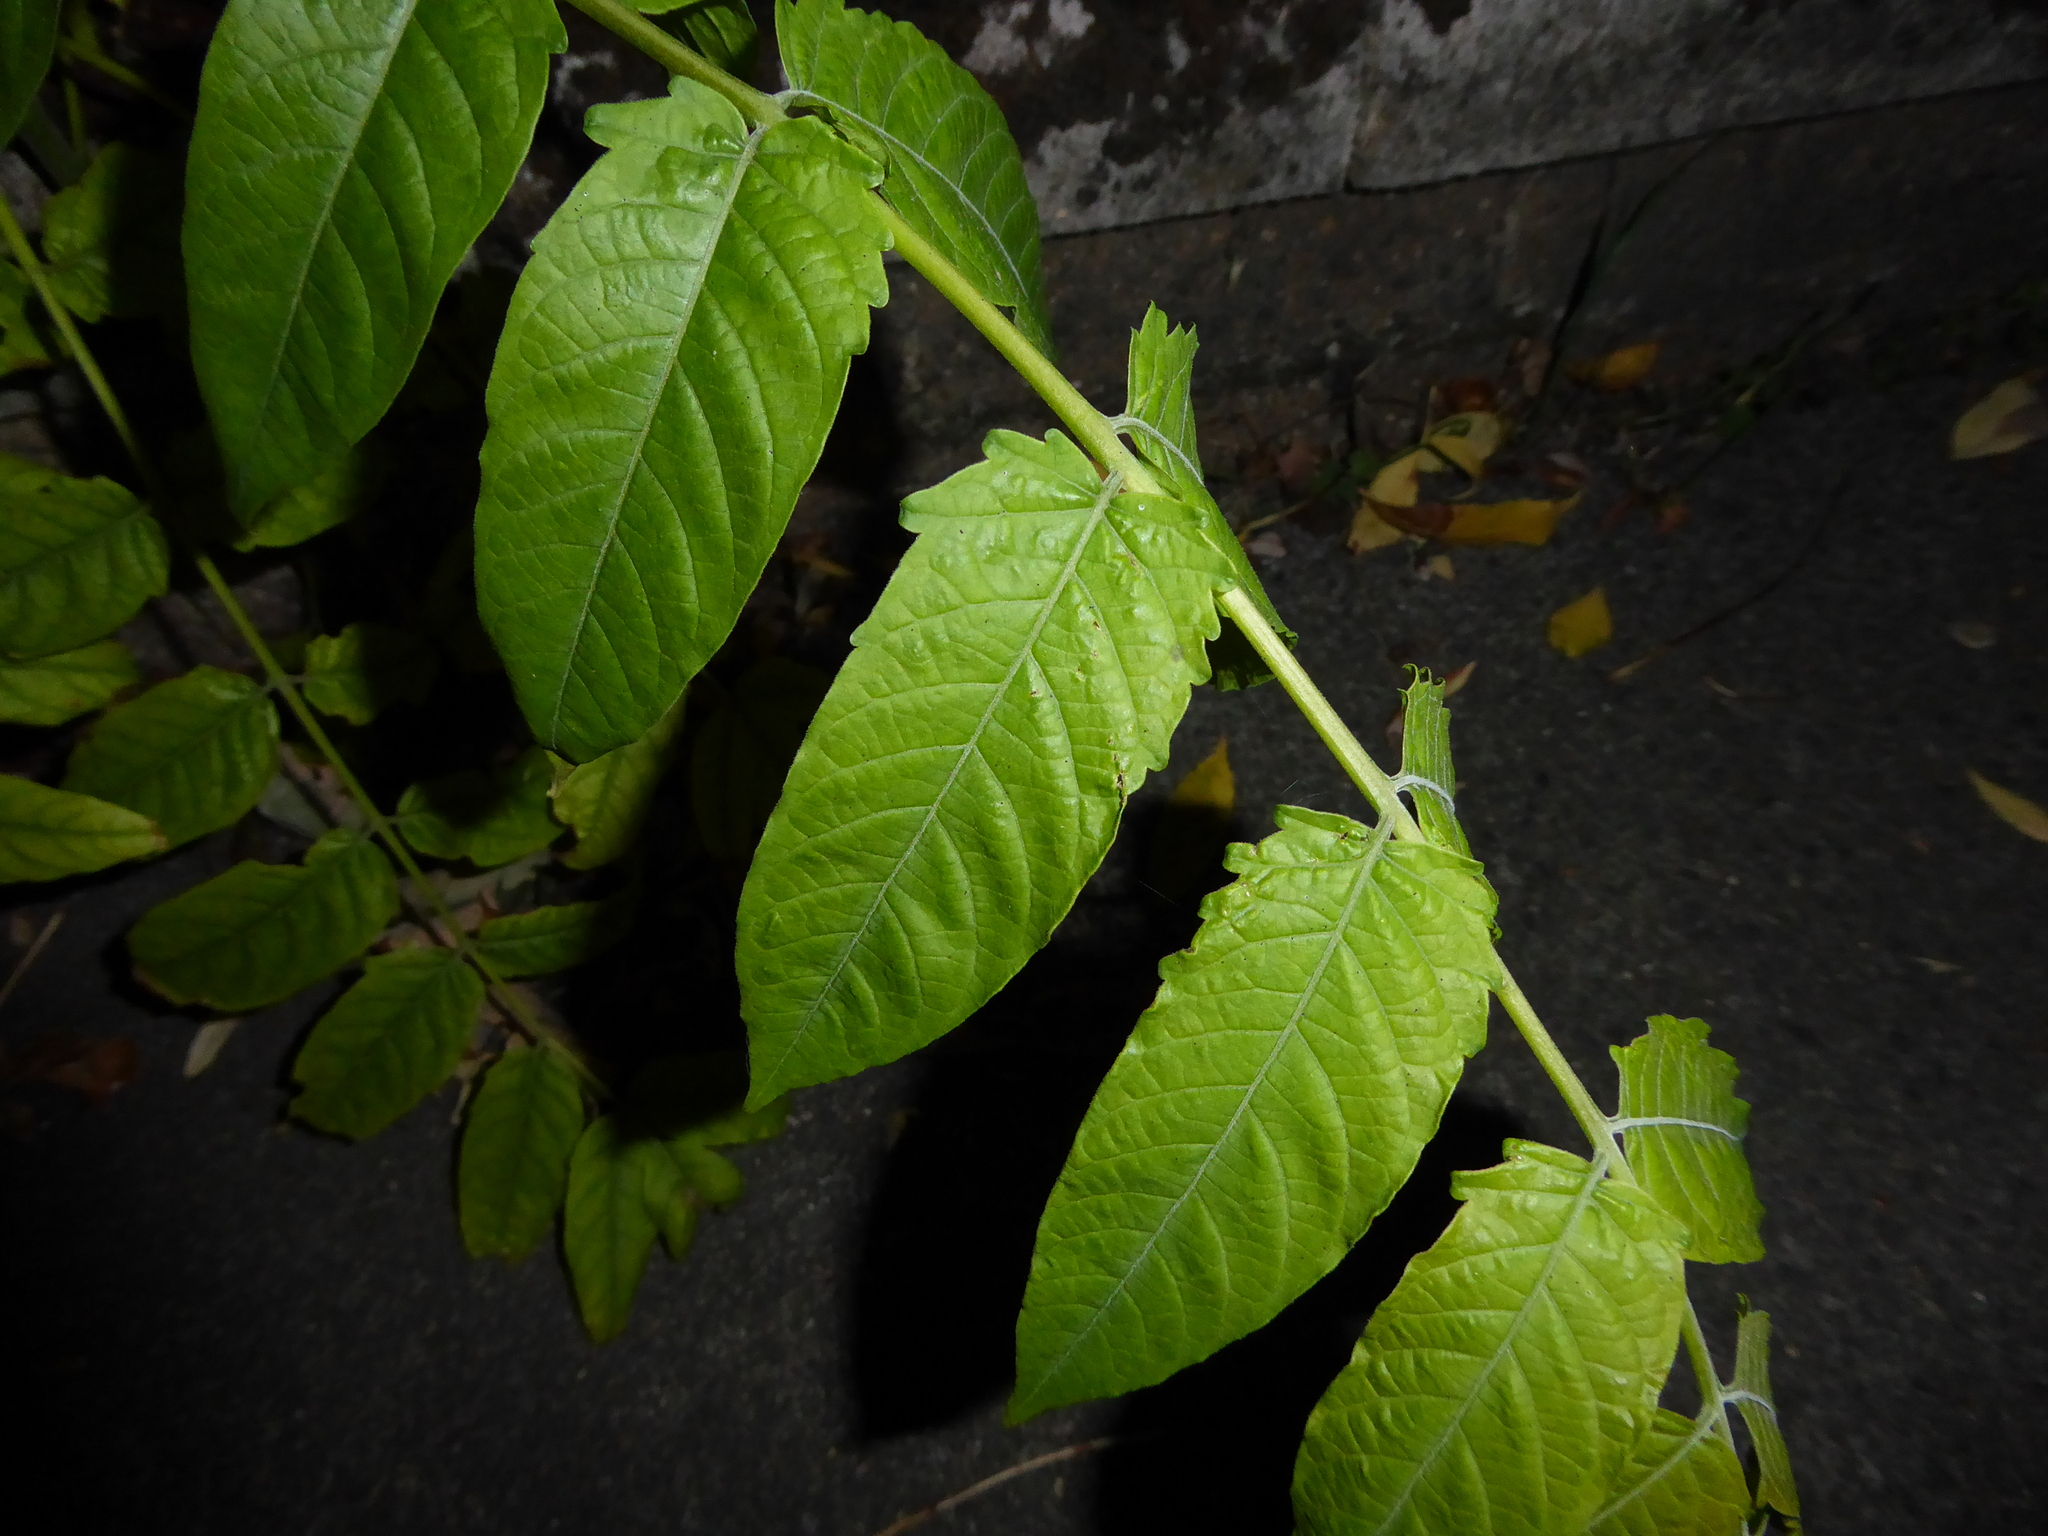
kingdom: Plantae
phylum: Tracheophyta
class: Magnoliopsida
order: Sapindales
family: Simaroubaceae
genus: Ailanthus
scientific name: Ailanthus altissima
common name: Tree-of-heaven
